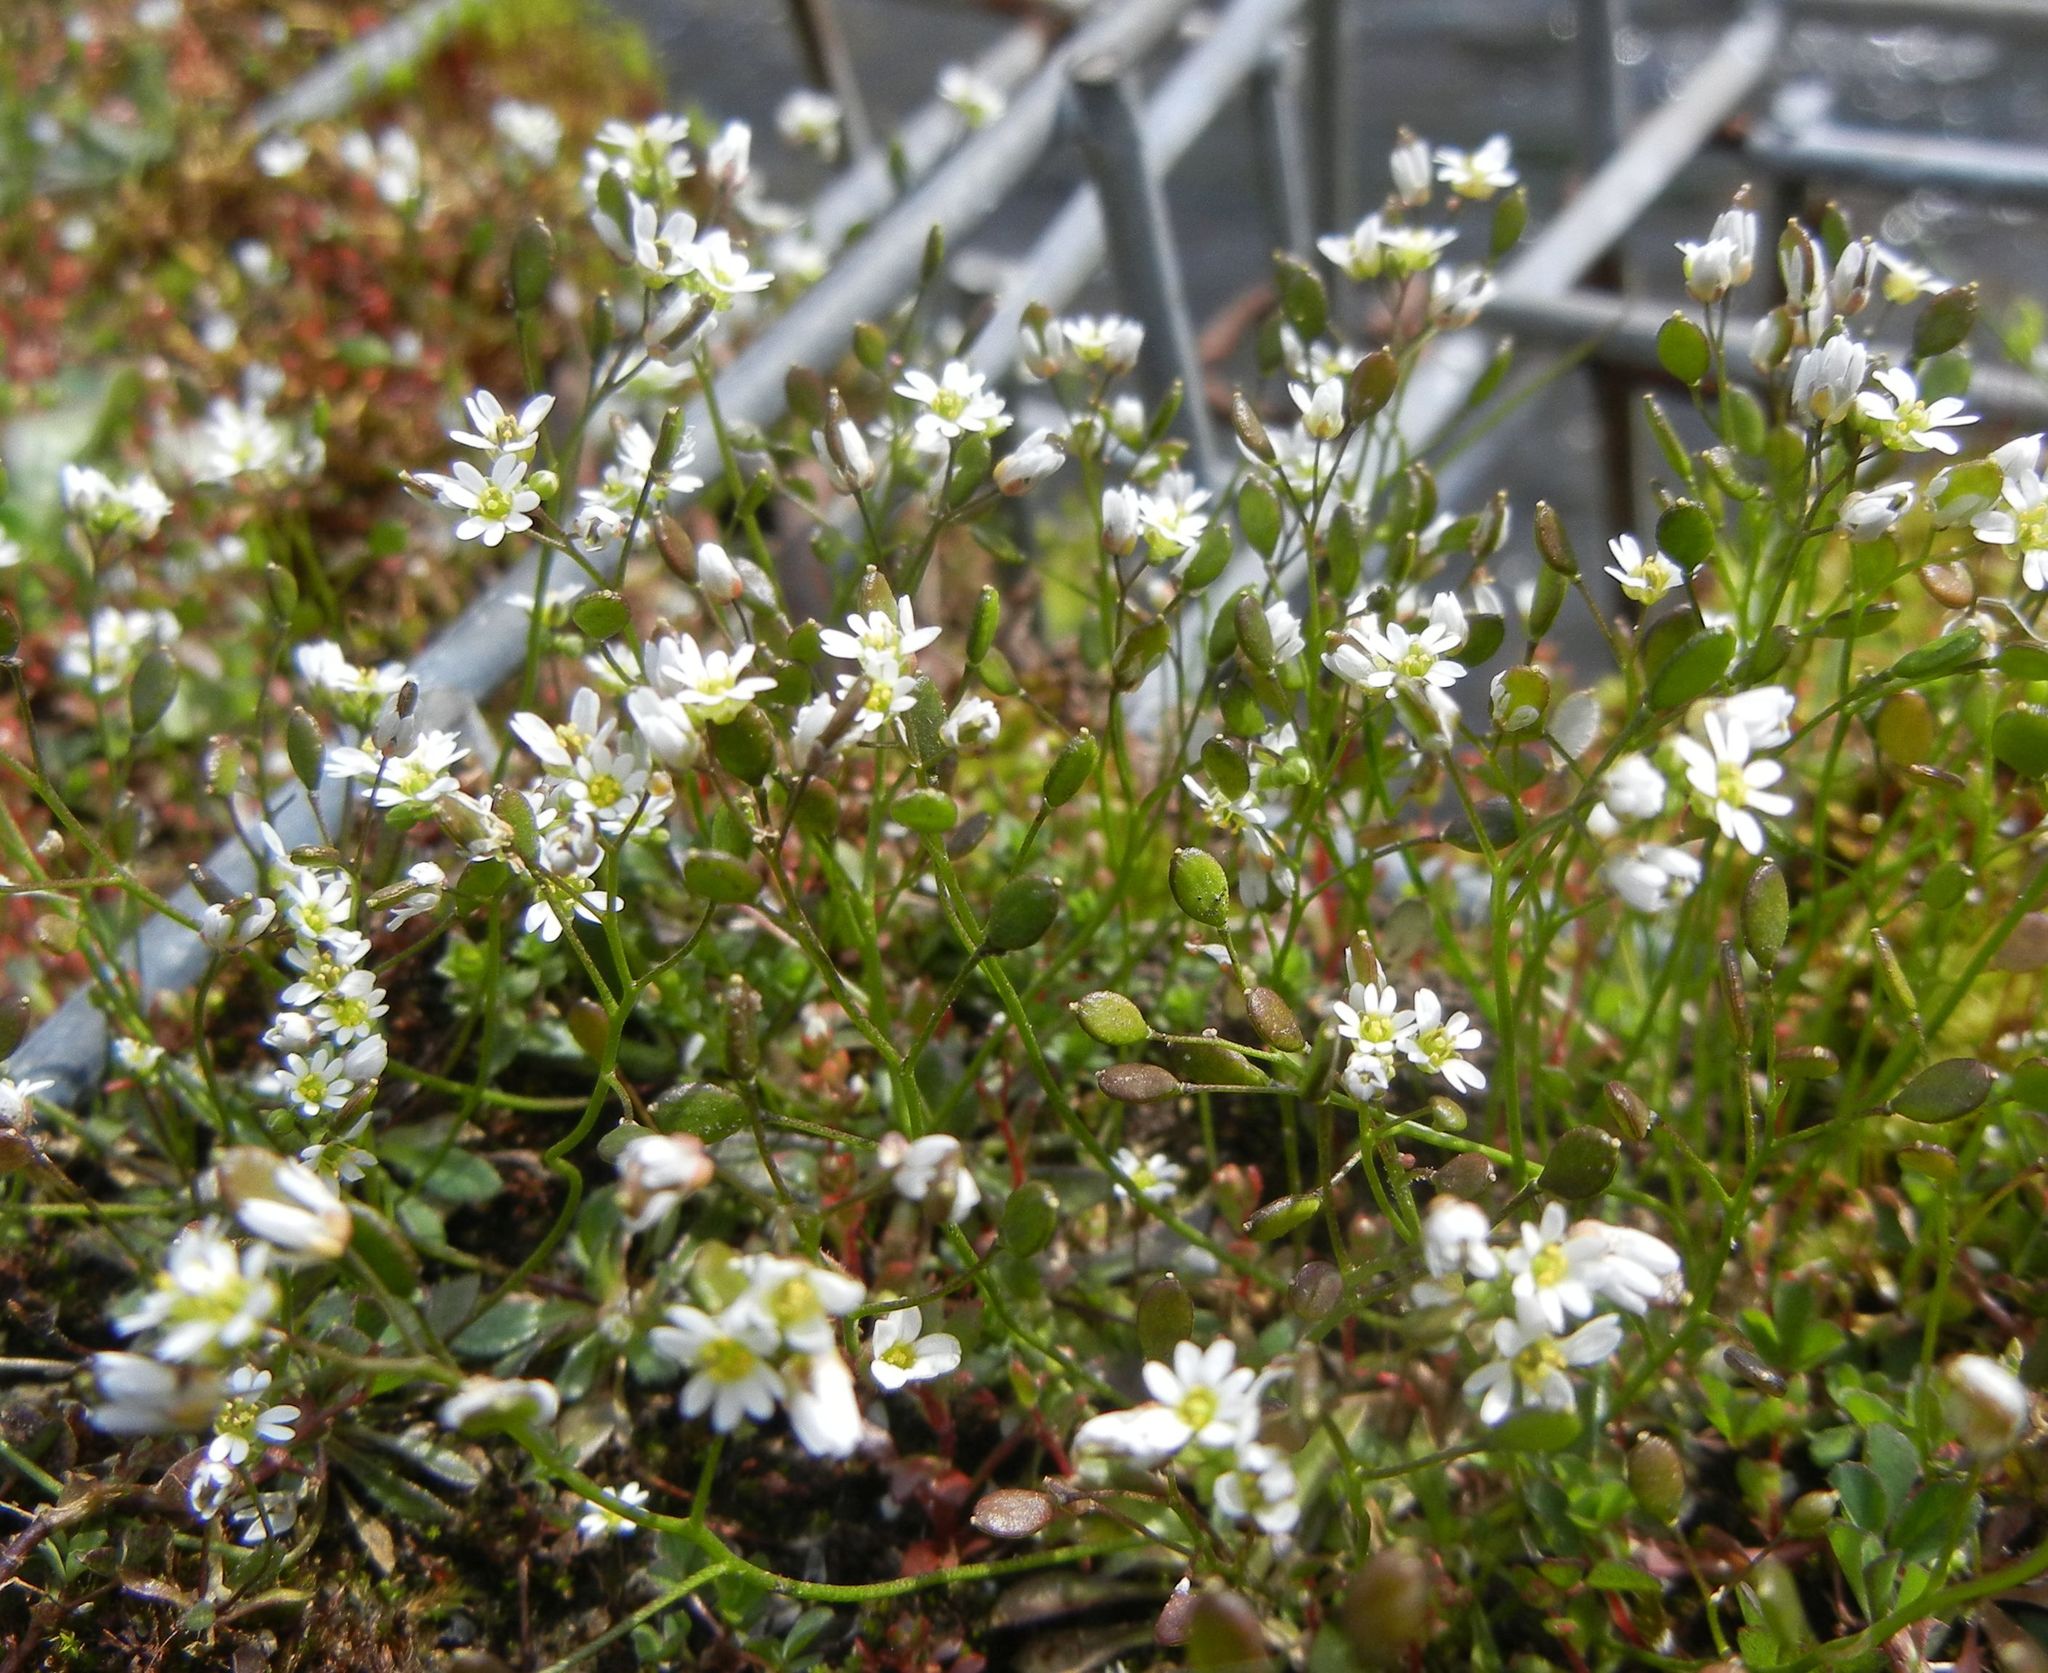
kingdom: Plantae
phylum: Tracheophyta
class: Magnoliopsida
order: Brassicales
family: Brassicaceae
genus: Draba
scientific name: Draba verna
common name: Spring draba
